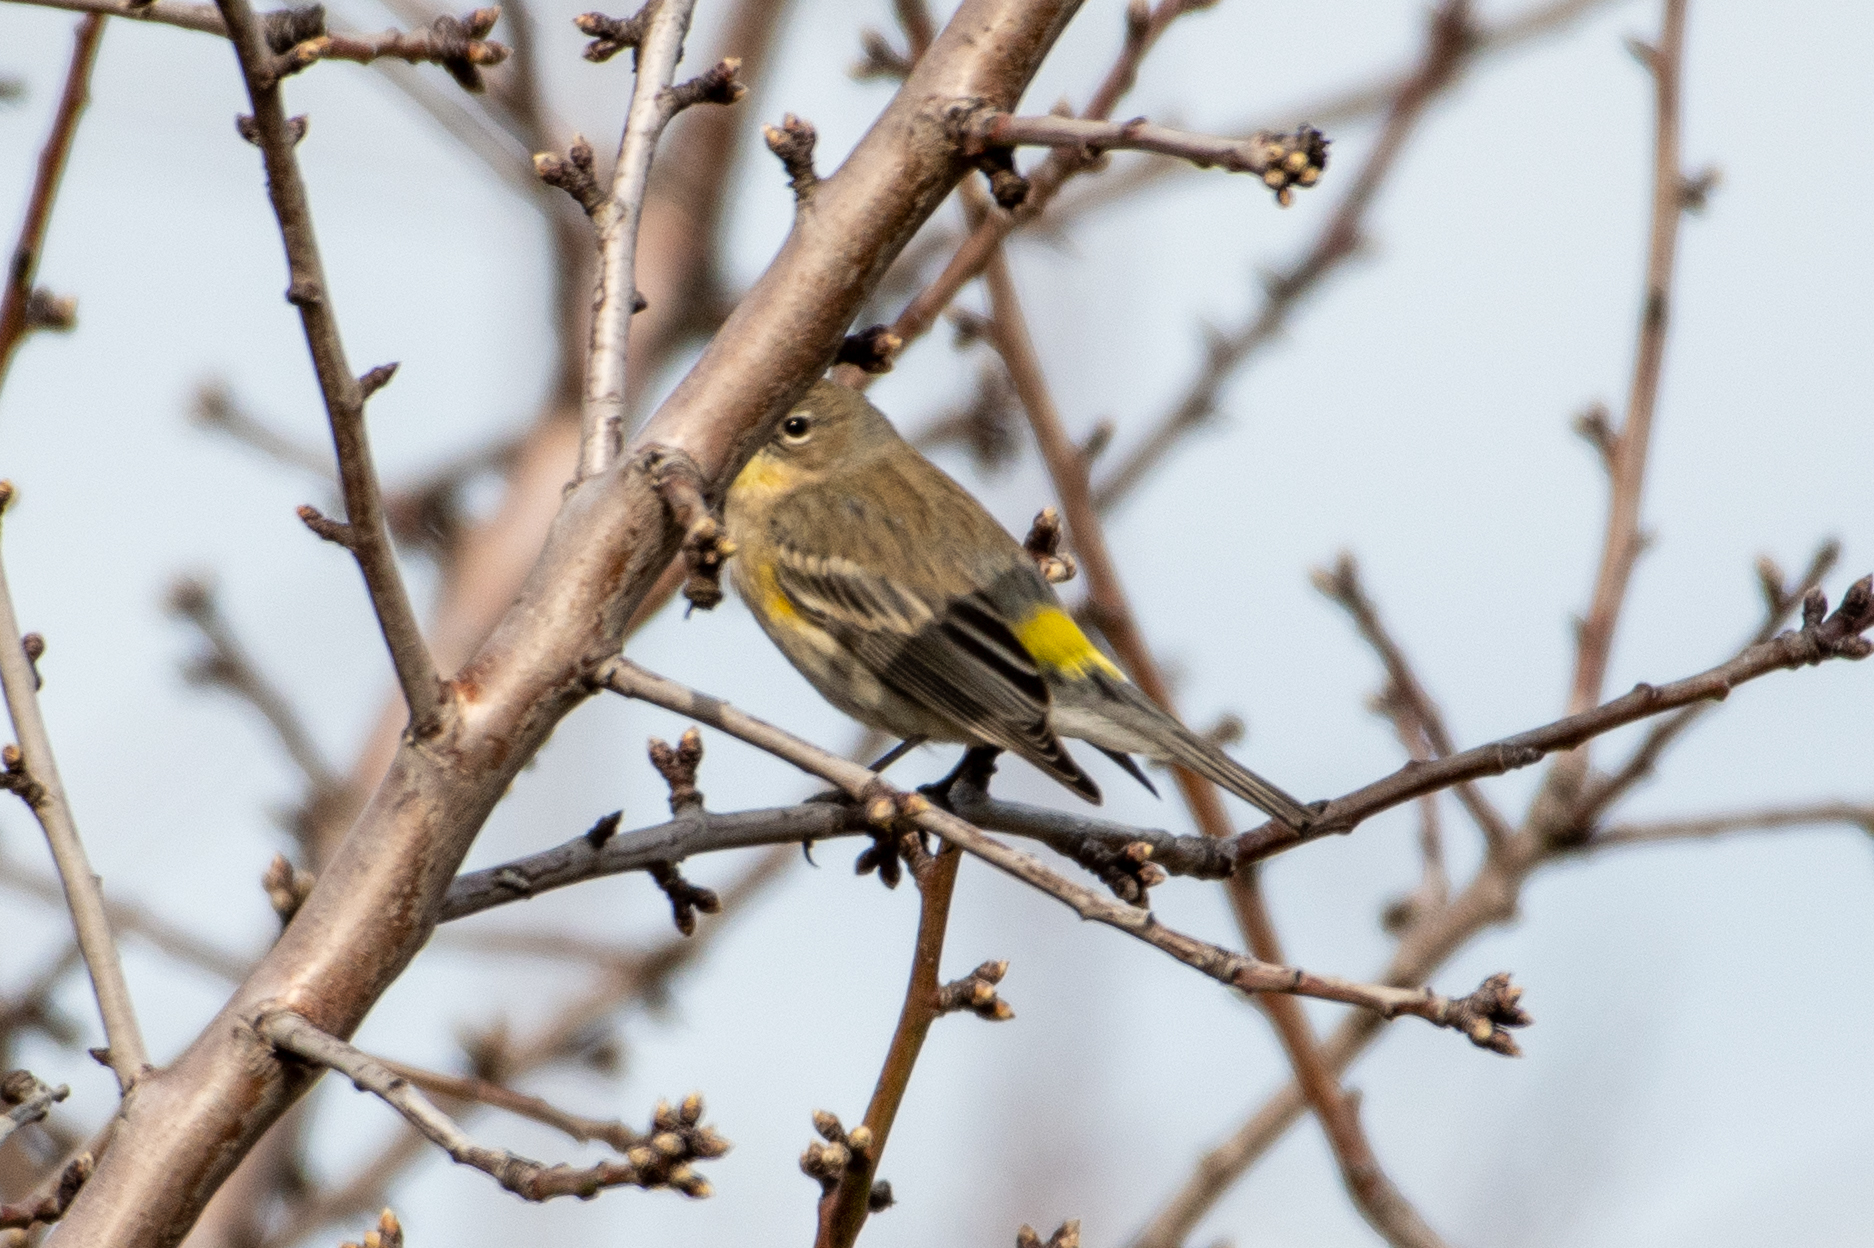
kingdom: Animalia
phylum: Chordata
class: Aves
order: Passeriformes
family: Parulidae
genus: Setophaga
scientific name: Setophaga coronata
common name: Myrtle warbler
